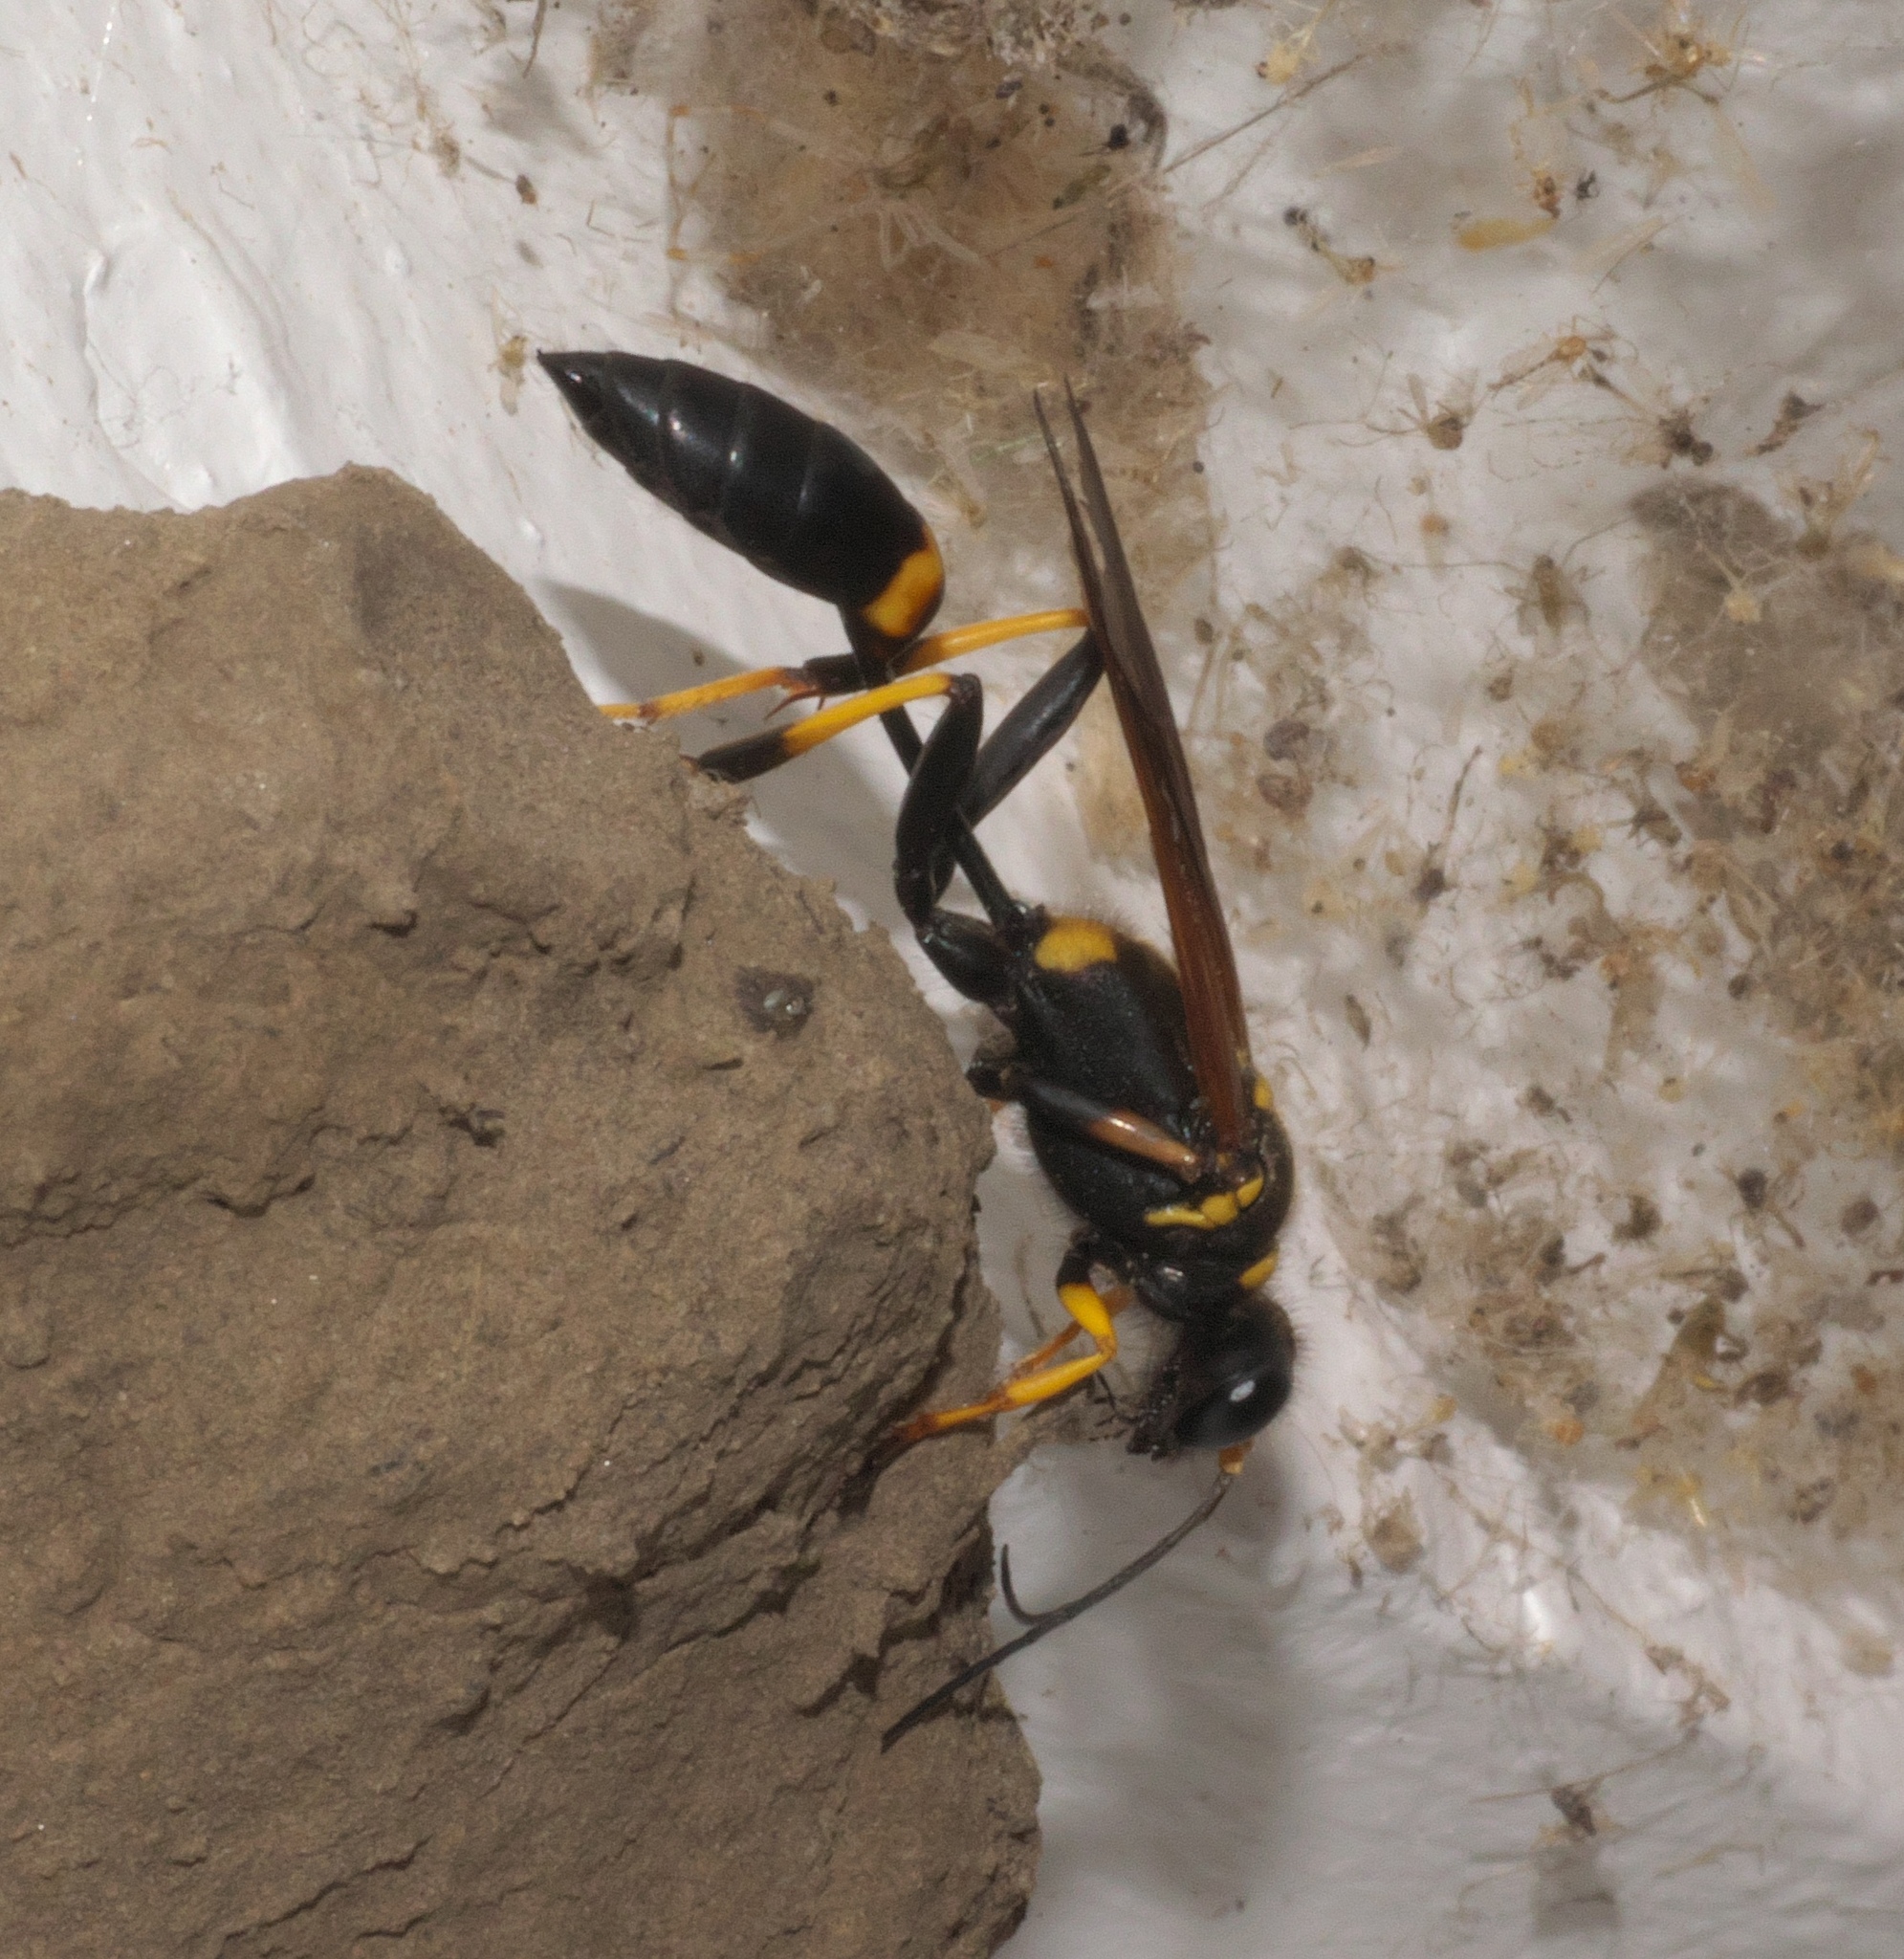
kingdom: Animalia
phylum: Arthropoda
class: Insecta
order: Hymenoptera
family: Sphecidae
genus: Sceliphron
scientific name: Sceliphron caementarium
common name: Mud dauber
